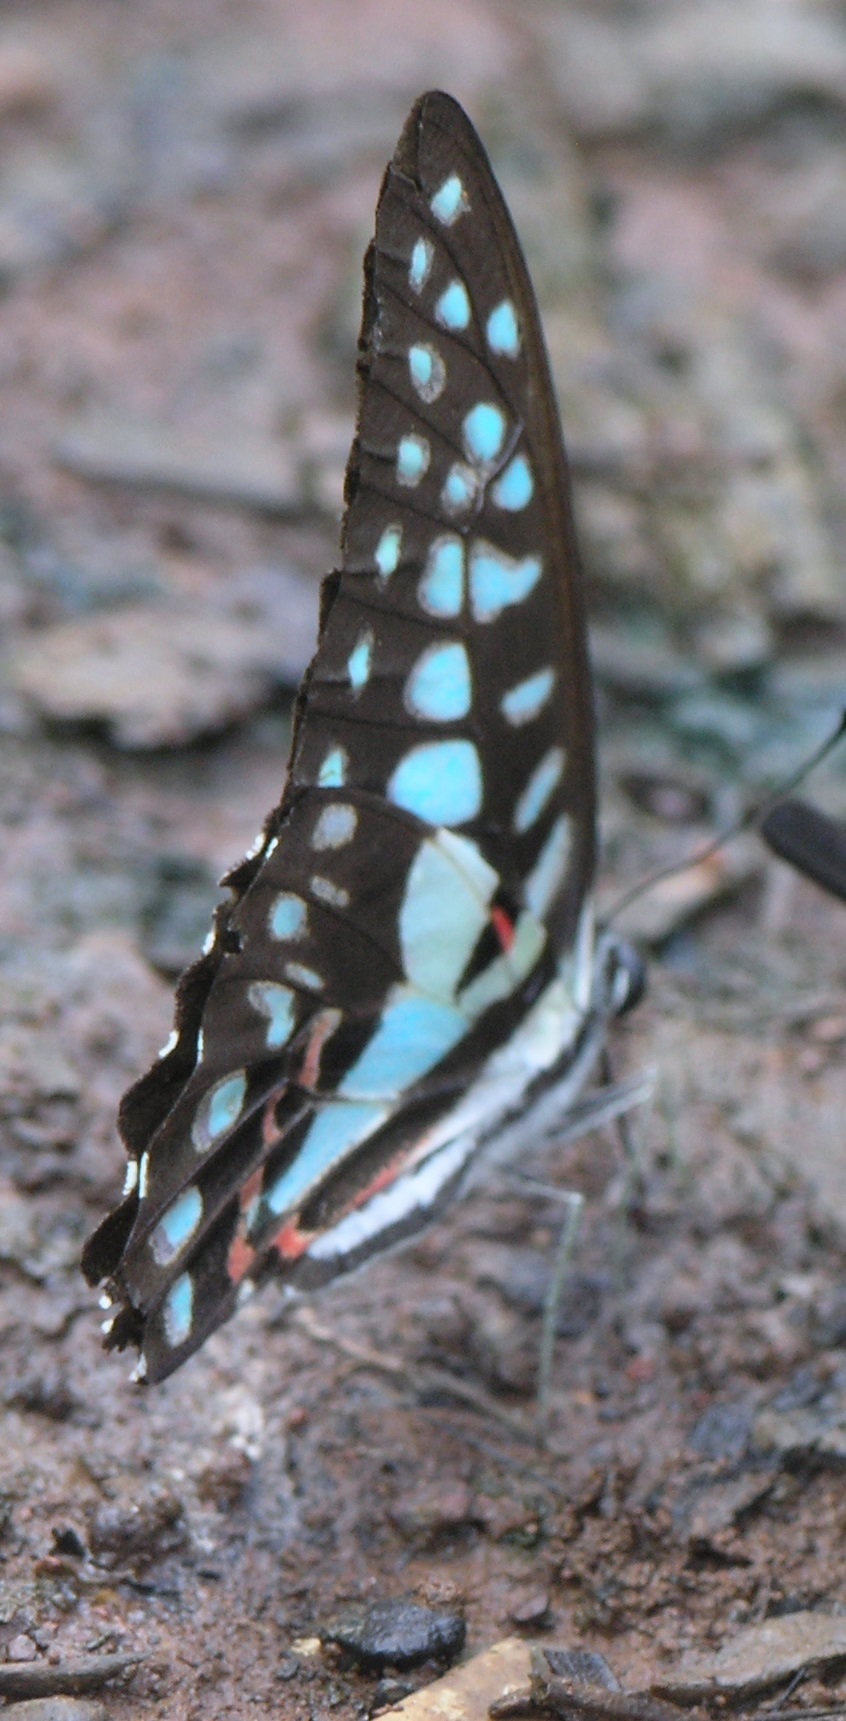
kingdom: Animalia
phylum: Arthropoda
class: Insecta
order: Lepidoptera
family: Papilionidae
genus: Graphium
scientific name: Graphium doson
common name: Common jay
